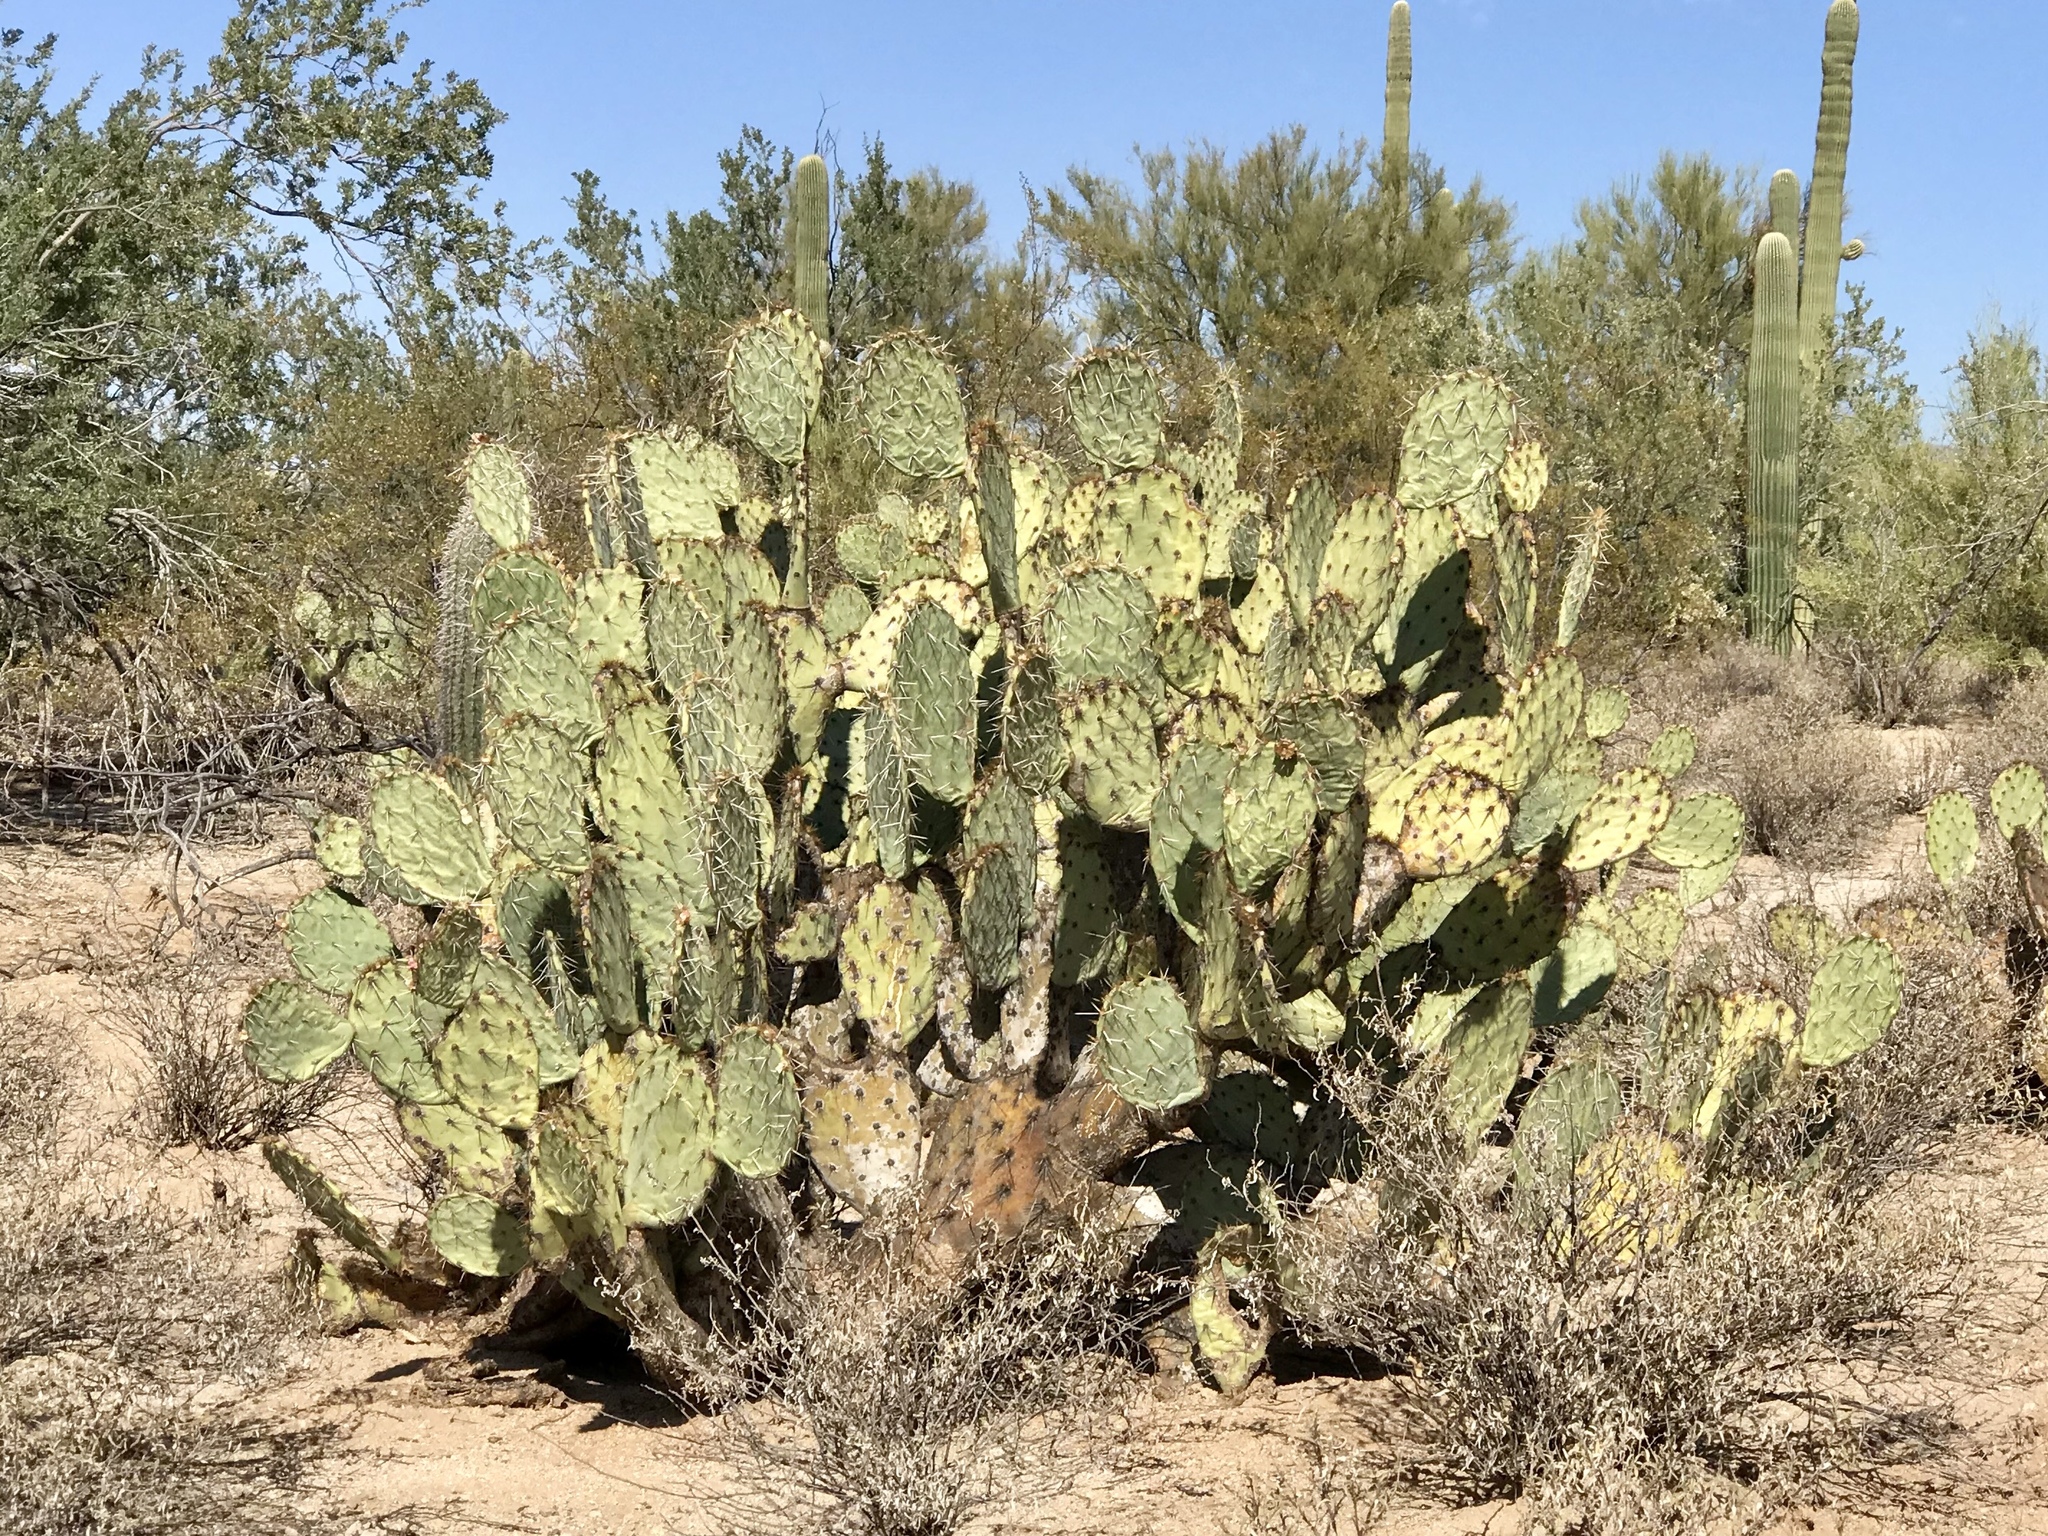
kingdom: Plantae
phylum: Tracheophyta
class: Magnoliopsida
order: Caryophyllales
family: Cactaceae
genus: Opuntia
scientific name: Opuntia engelmannii
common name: Cactus-apple
